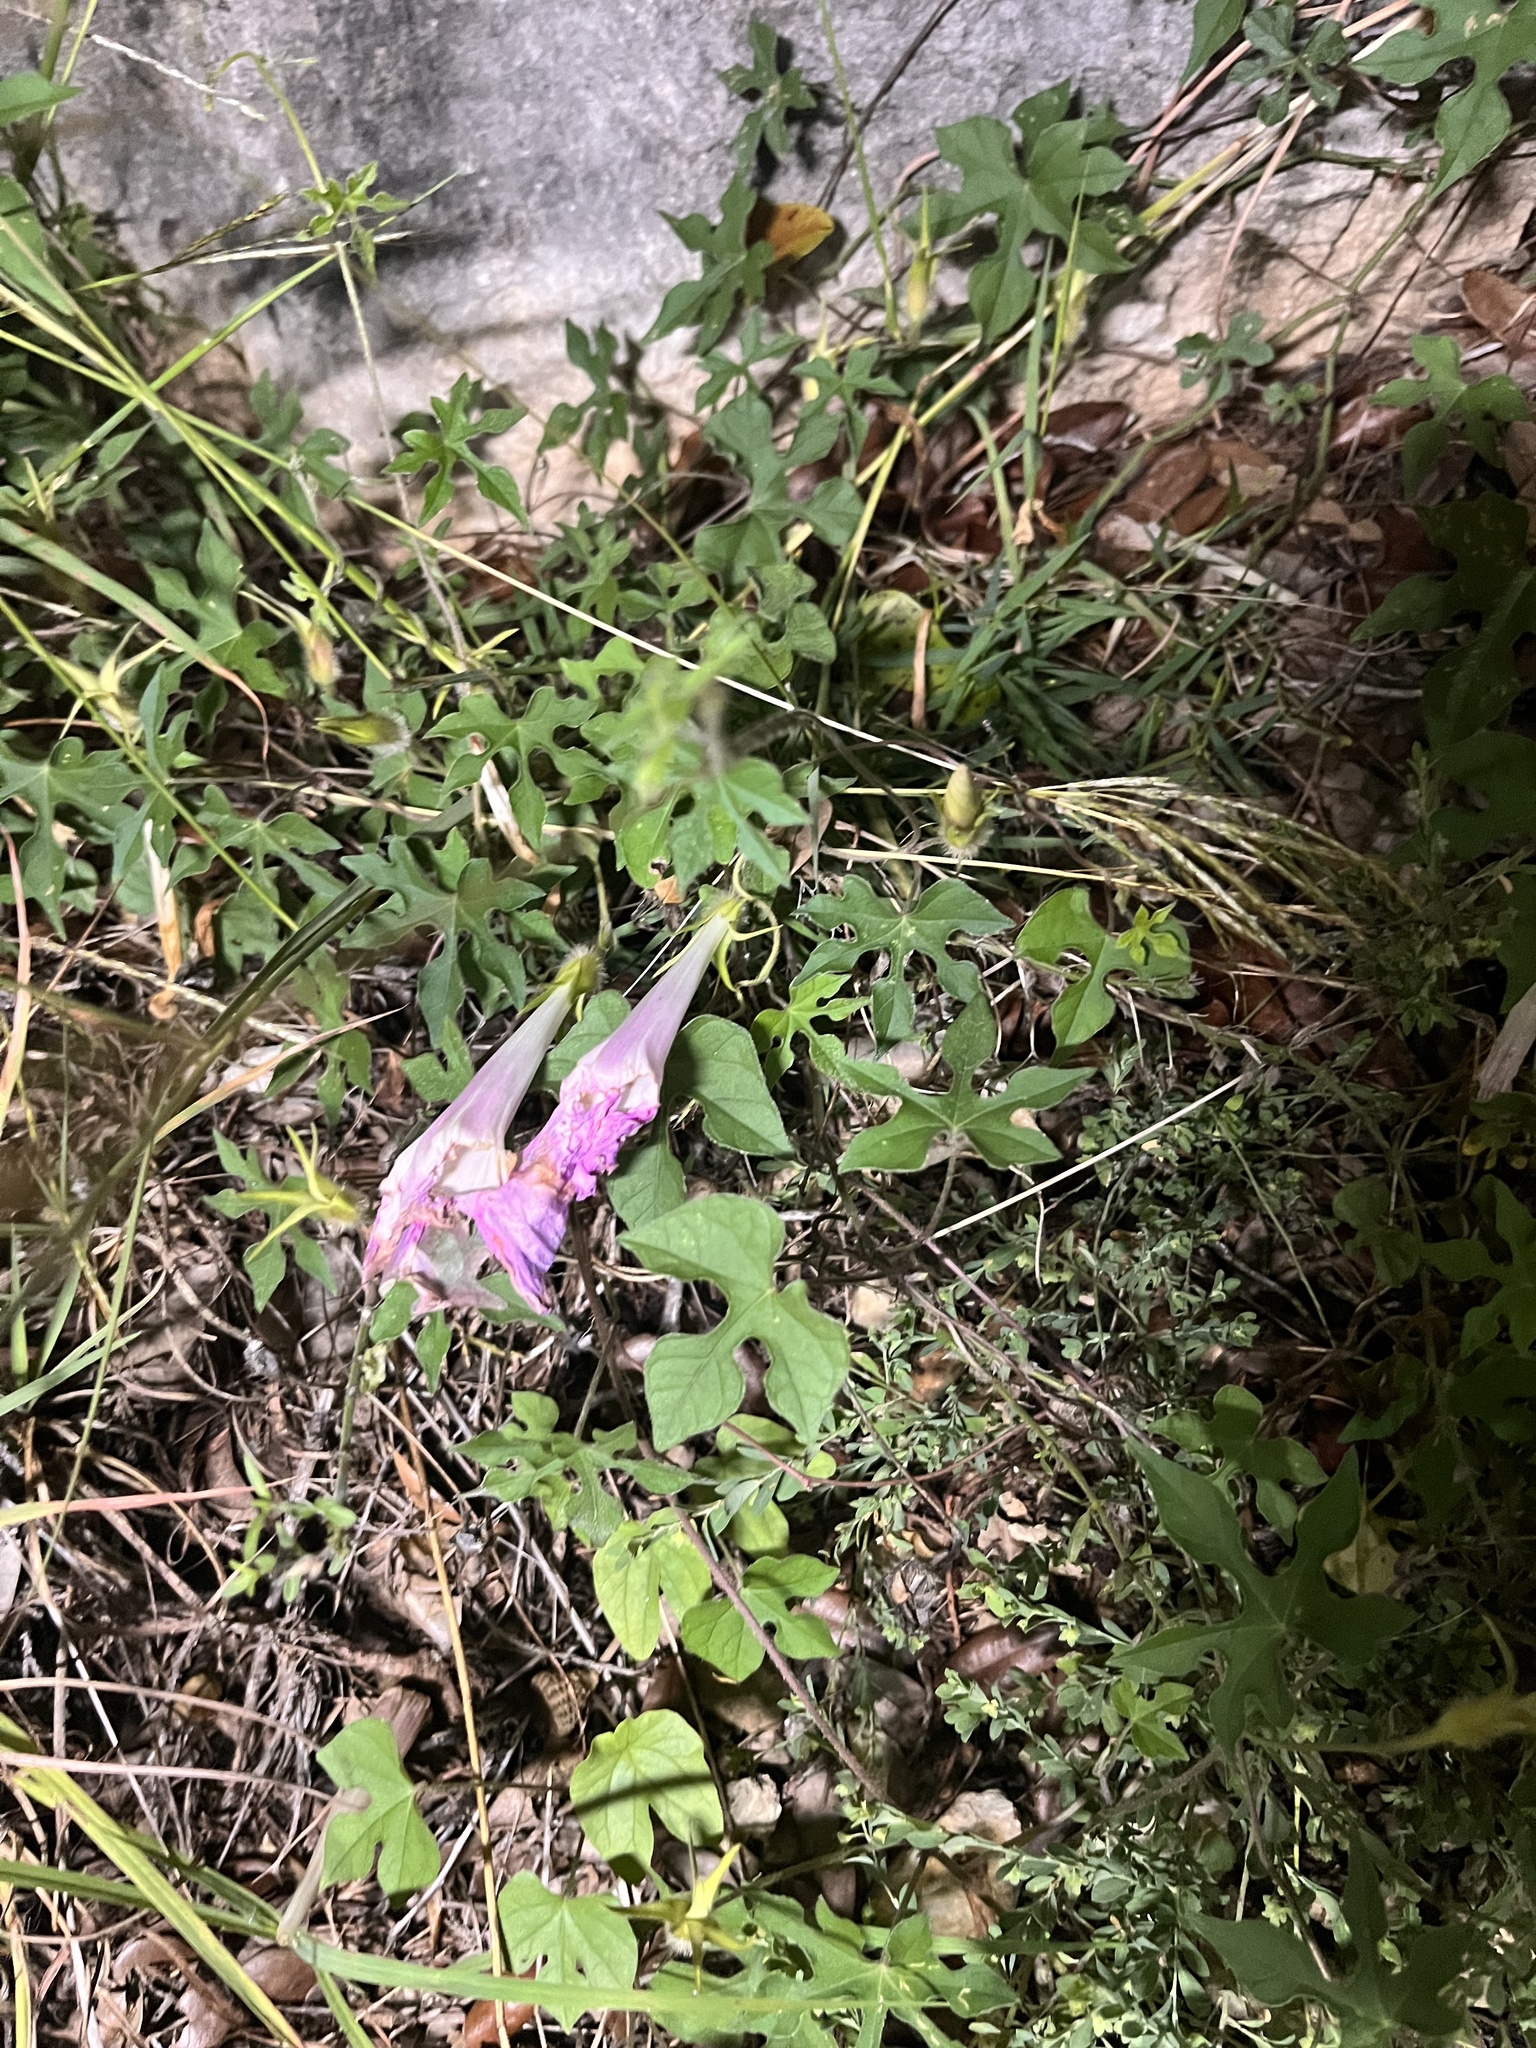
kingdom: Plantae
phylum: Tracheophyta
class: Magnoliopsida
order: Solanales
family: Convolvulaceae
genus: Ipomoea
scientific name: Ipomoea lindheimeri
